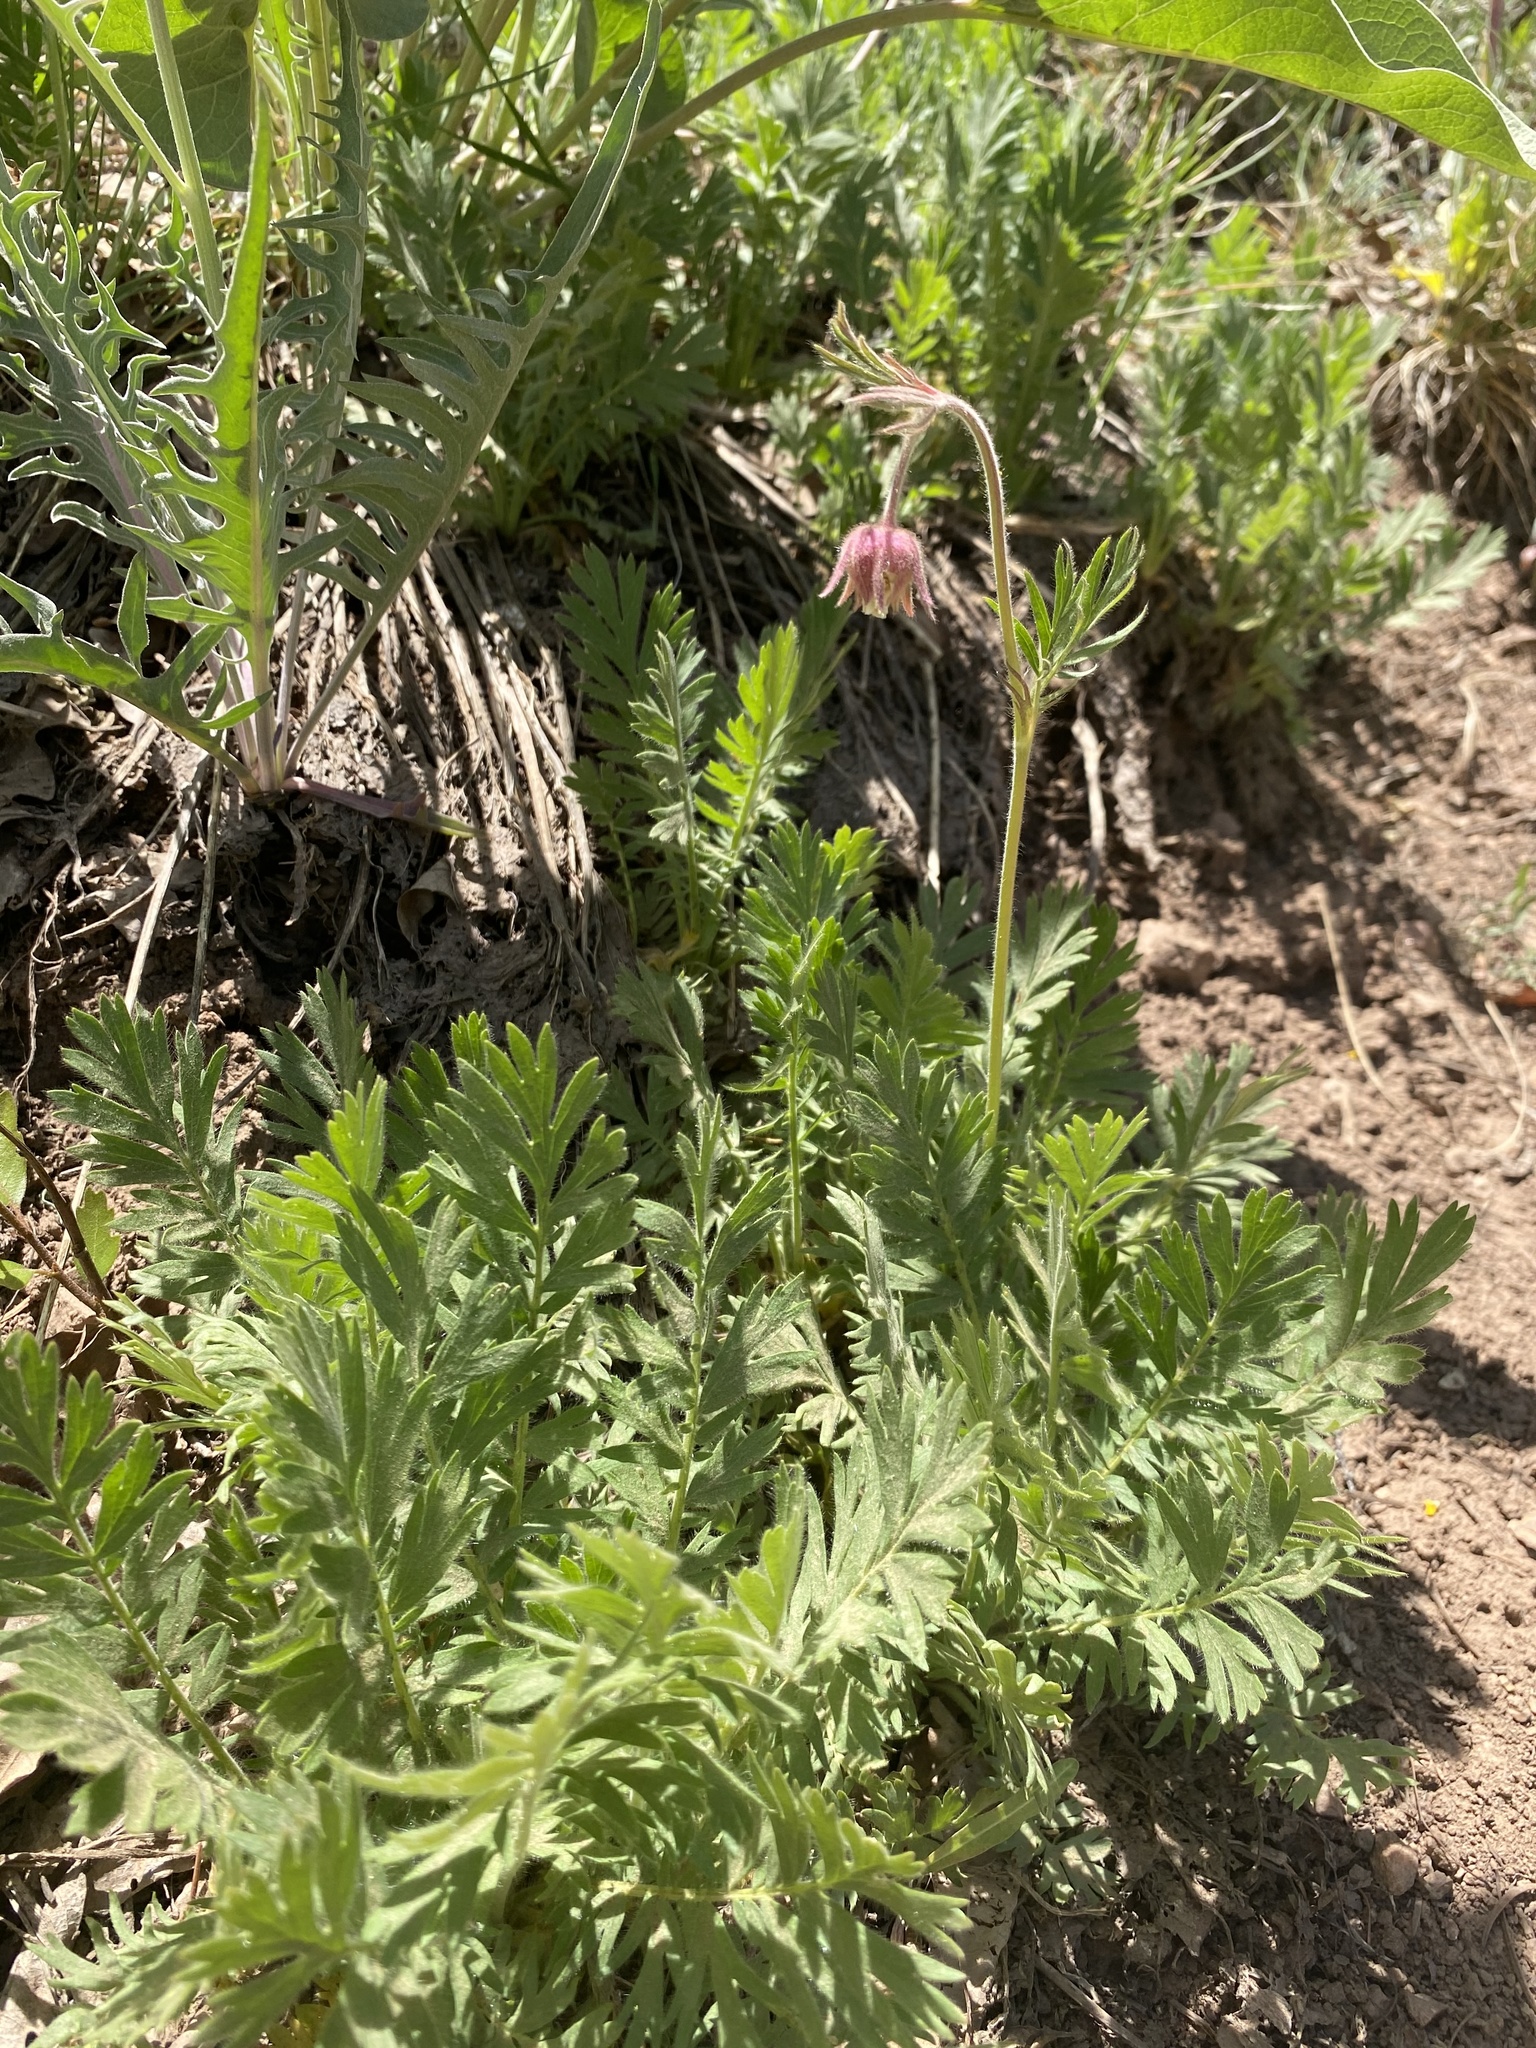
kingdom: Plantae
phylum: Tracheophyta
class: Magnoliopsida
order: Rosales
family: Rosaceae
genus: Geum
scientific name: Geum triflorum
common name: Old man's whiskers
